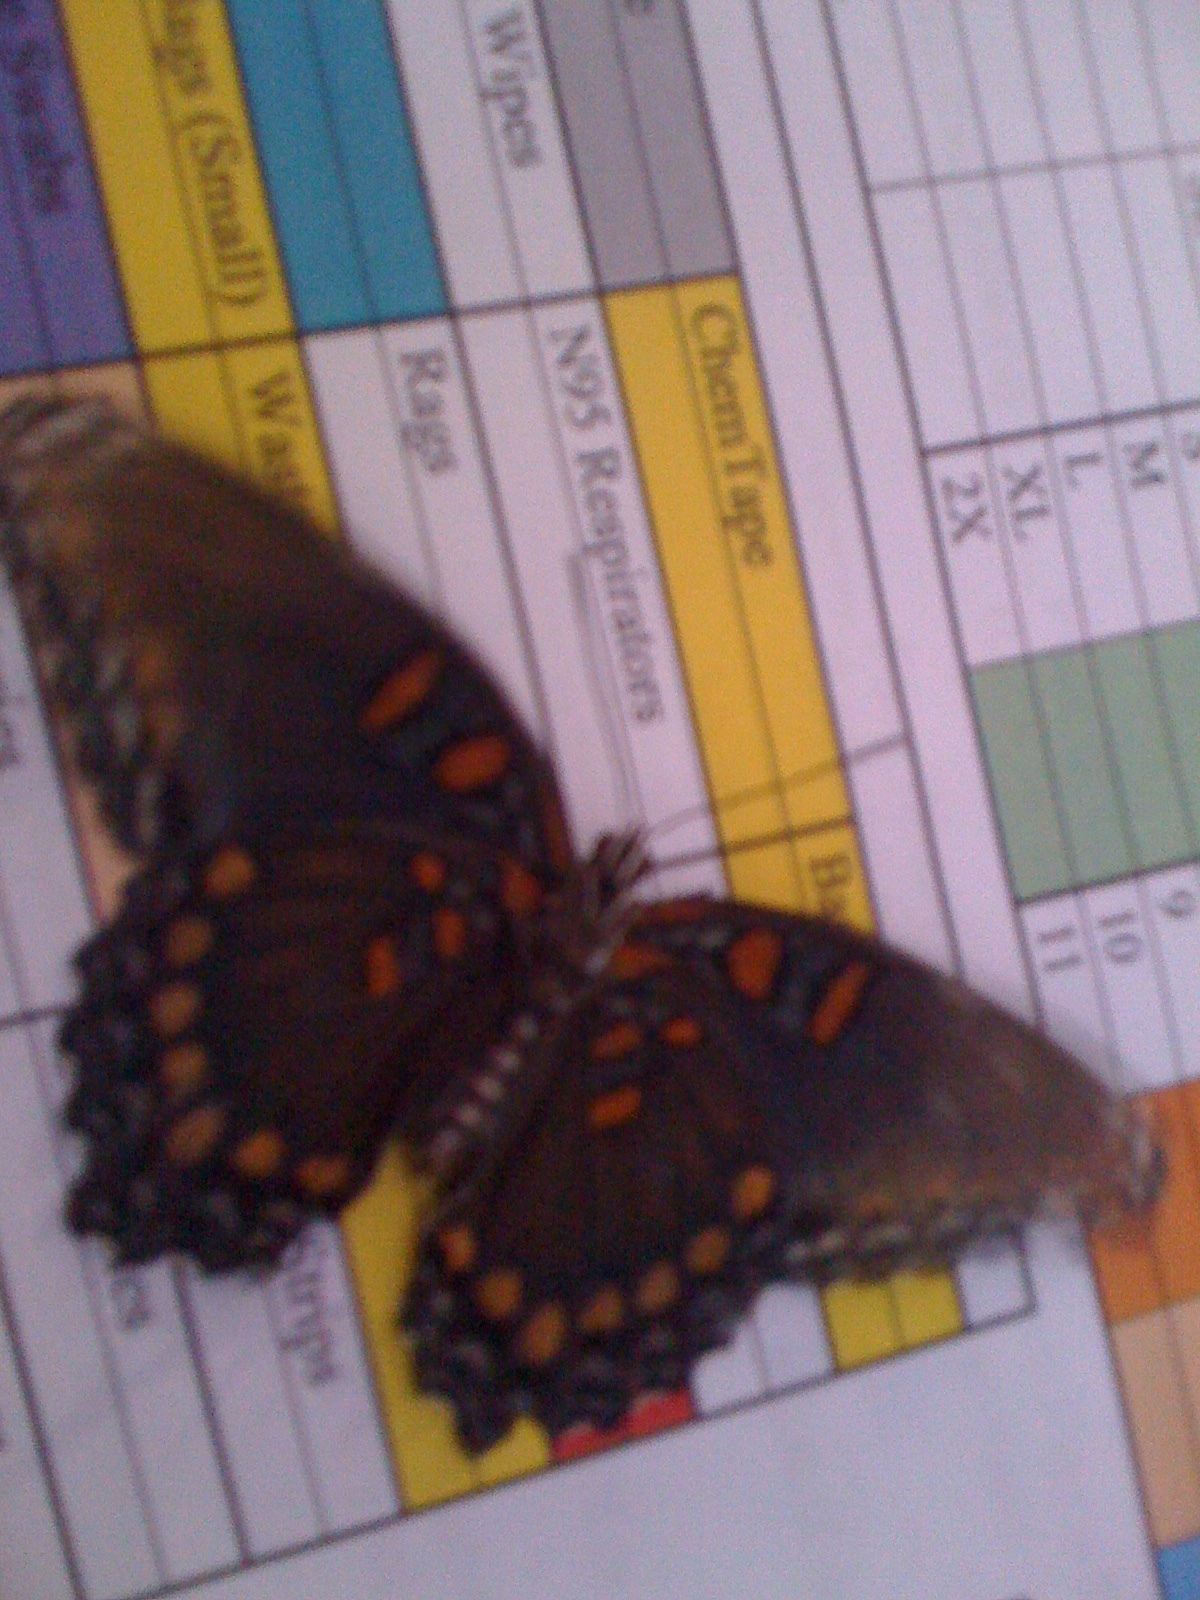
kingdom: Animalia
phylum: Arthropoda
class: Insecta
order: Lepidoptera
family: Nymphalidae
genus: Limenitis
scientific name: Limenitis astyanax
